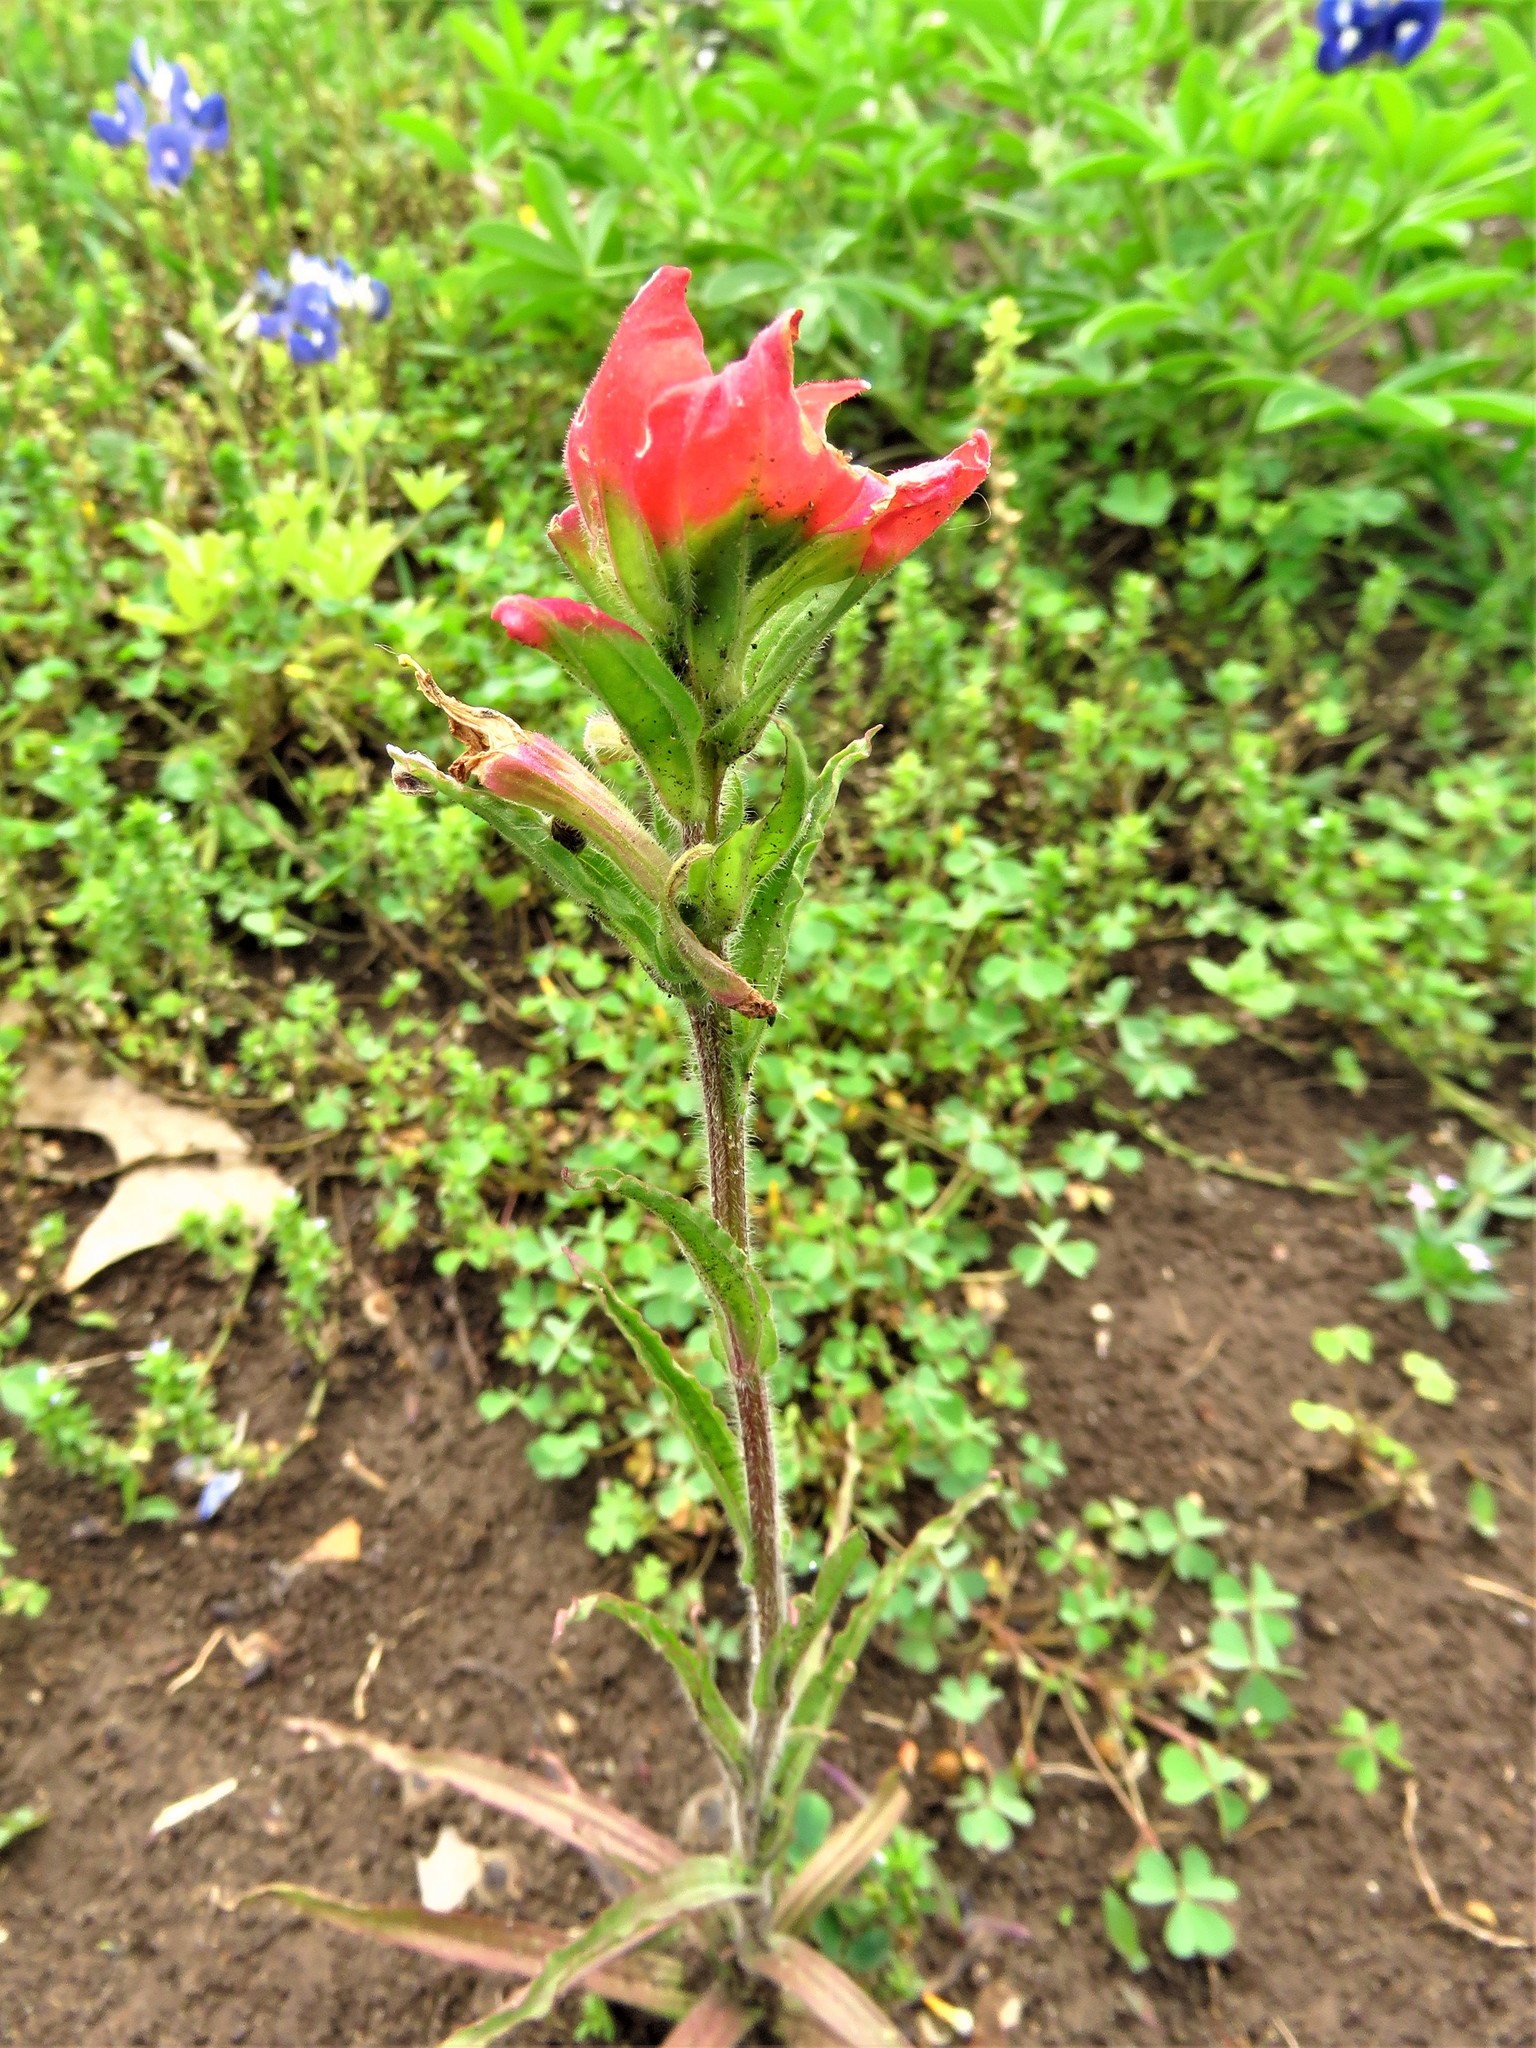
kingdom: Plantae
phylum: Tracheophyta
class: Magnoliopsida
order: Lamiales
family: Orobanchaceae
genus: Castilleja
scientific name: Castilleja indivisa
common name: Texas paintbrush
